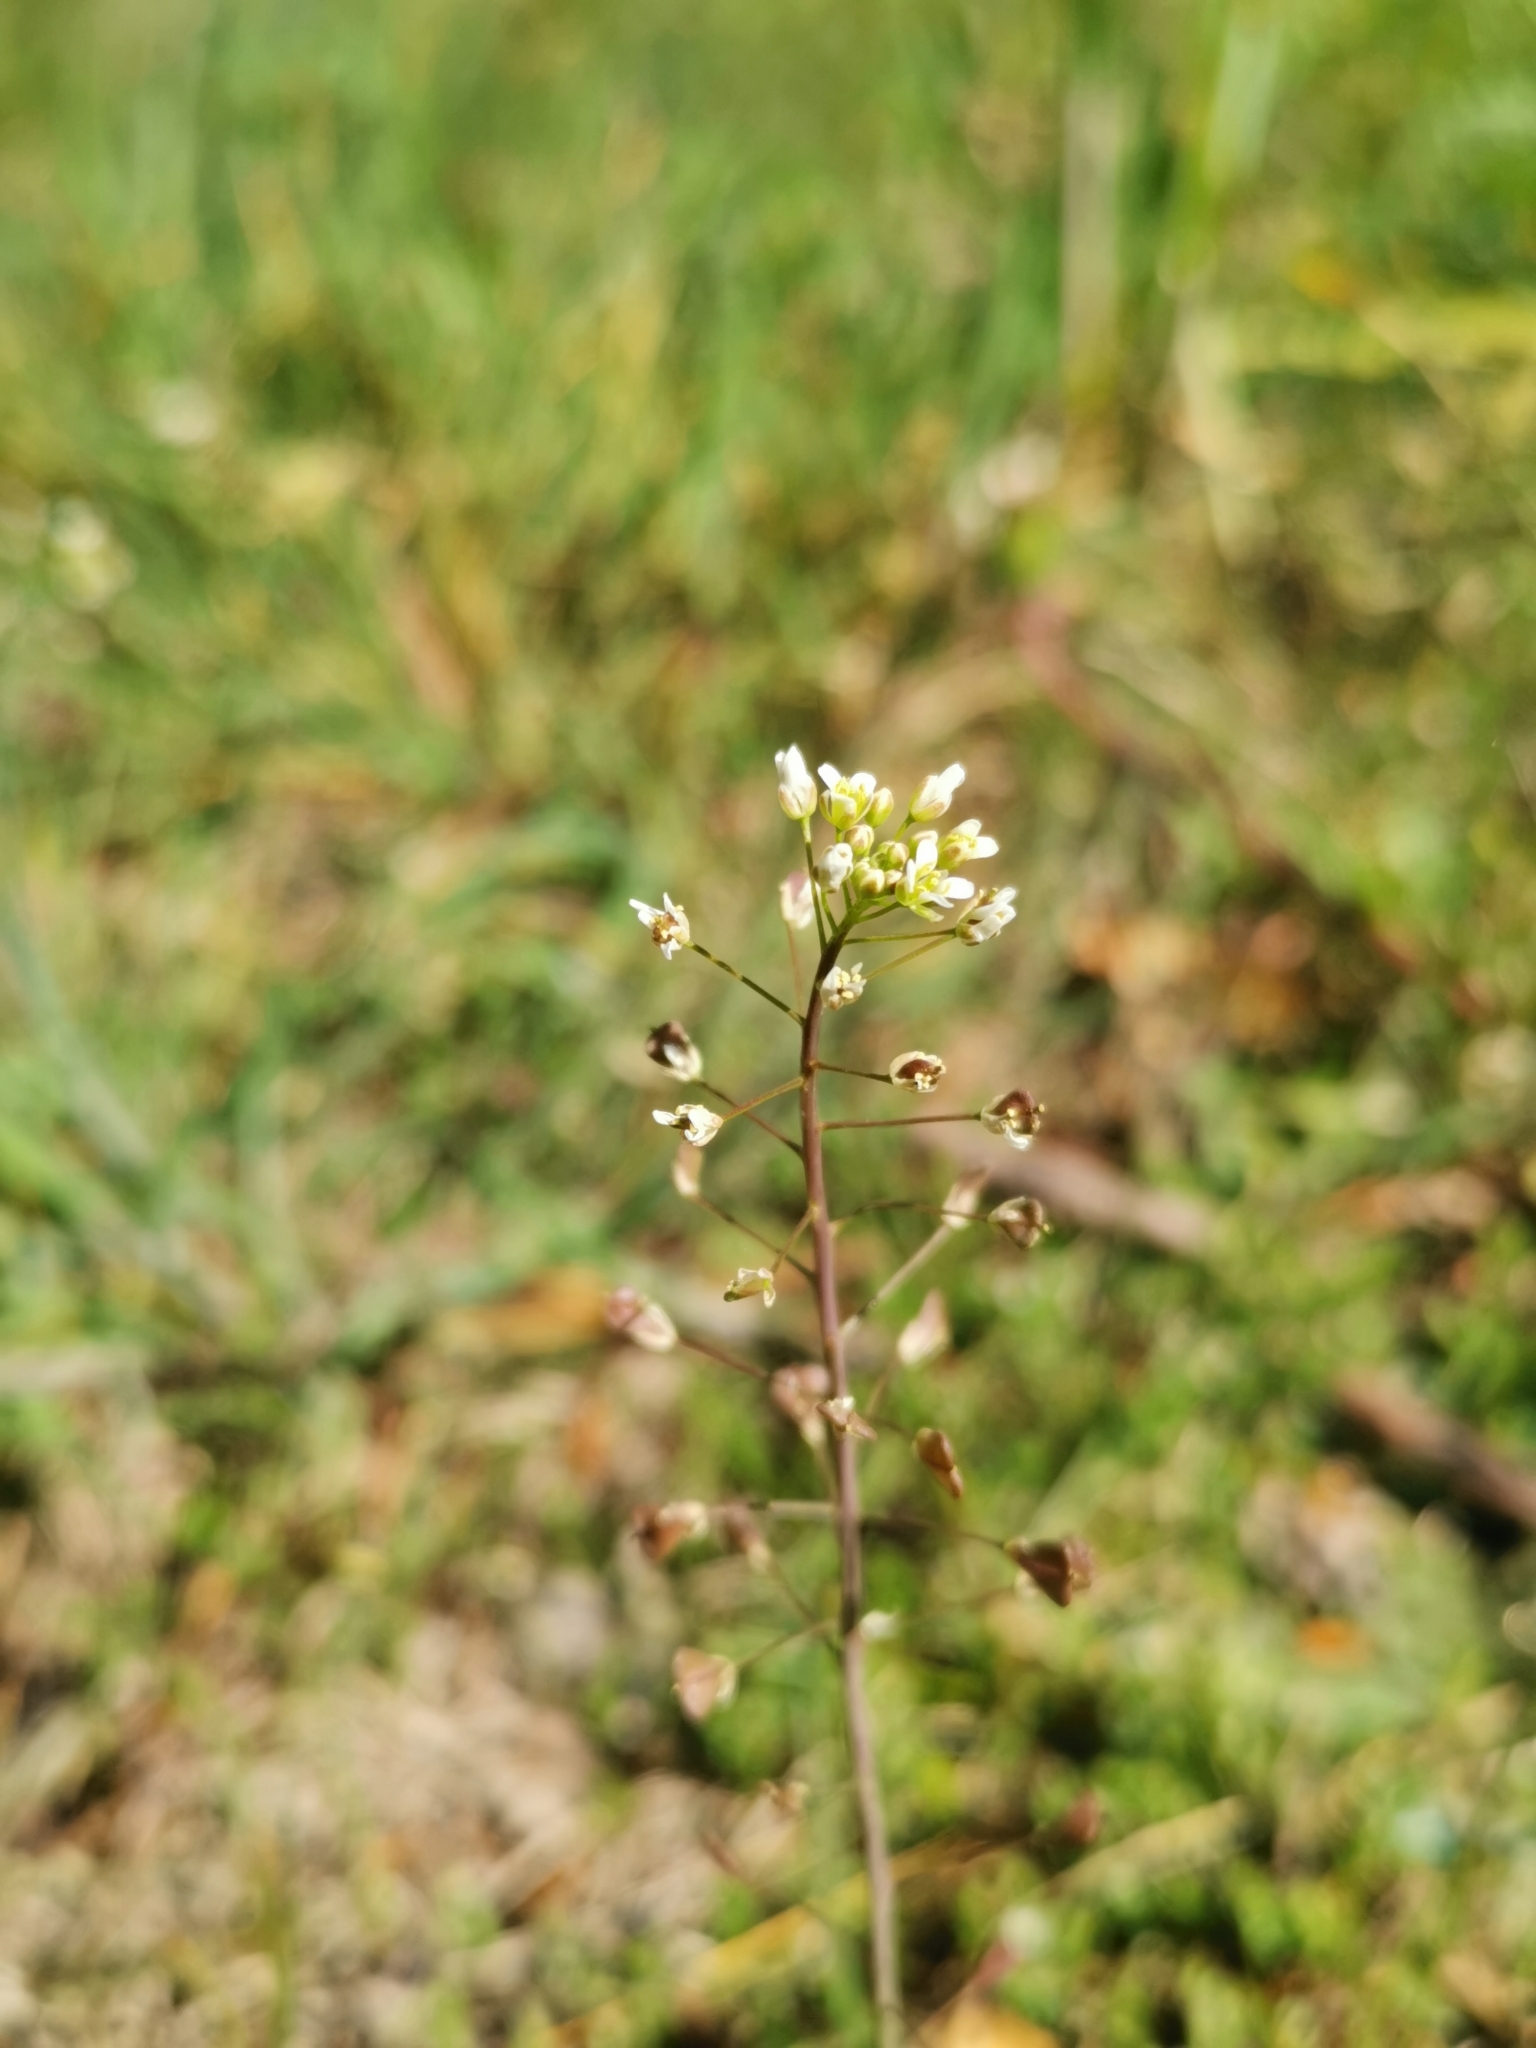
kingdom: Plantae
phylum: Tracheophyta
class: Magnoliopsida
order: Brassicales
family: Brassicaceae
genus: Capsella
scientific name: Capsella bursa-pastoris
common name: Shepherd's purse
